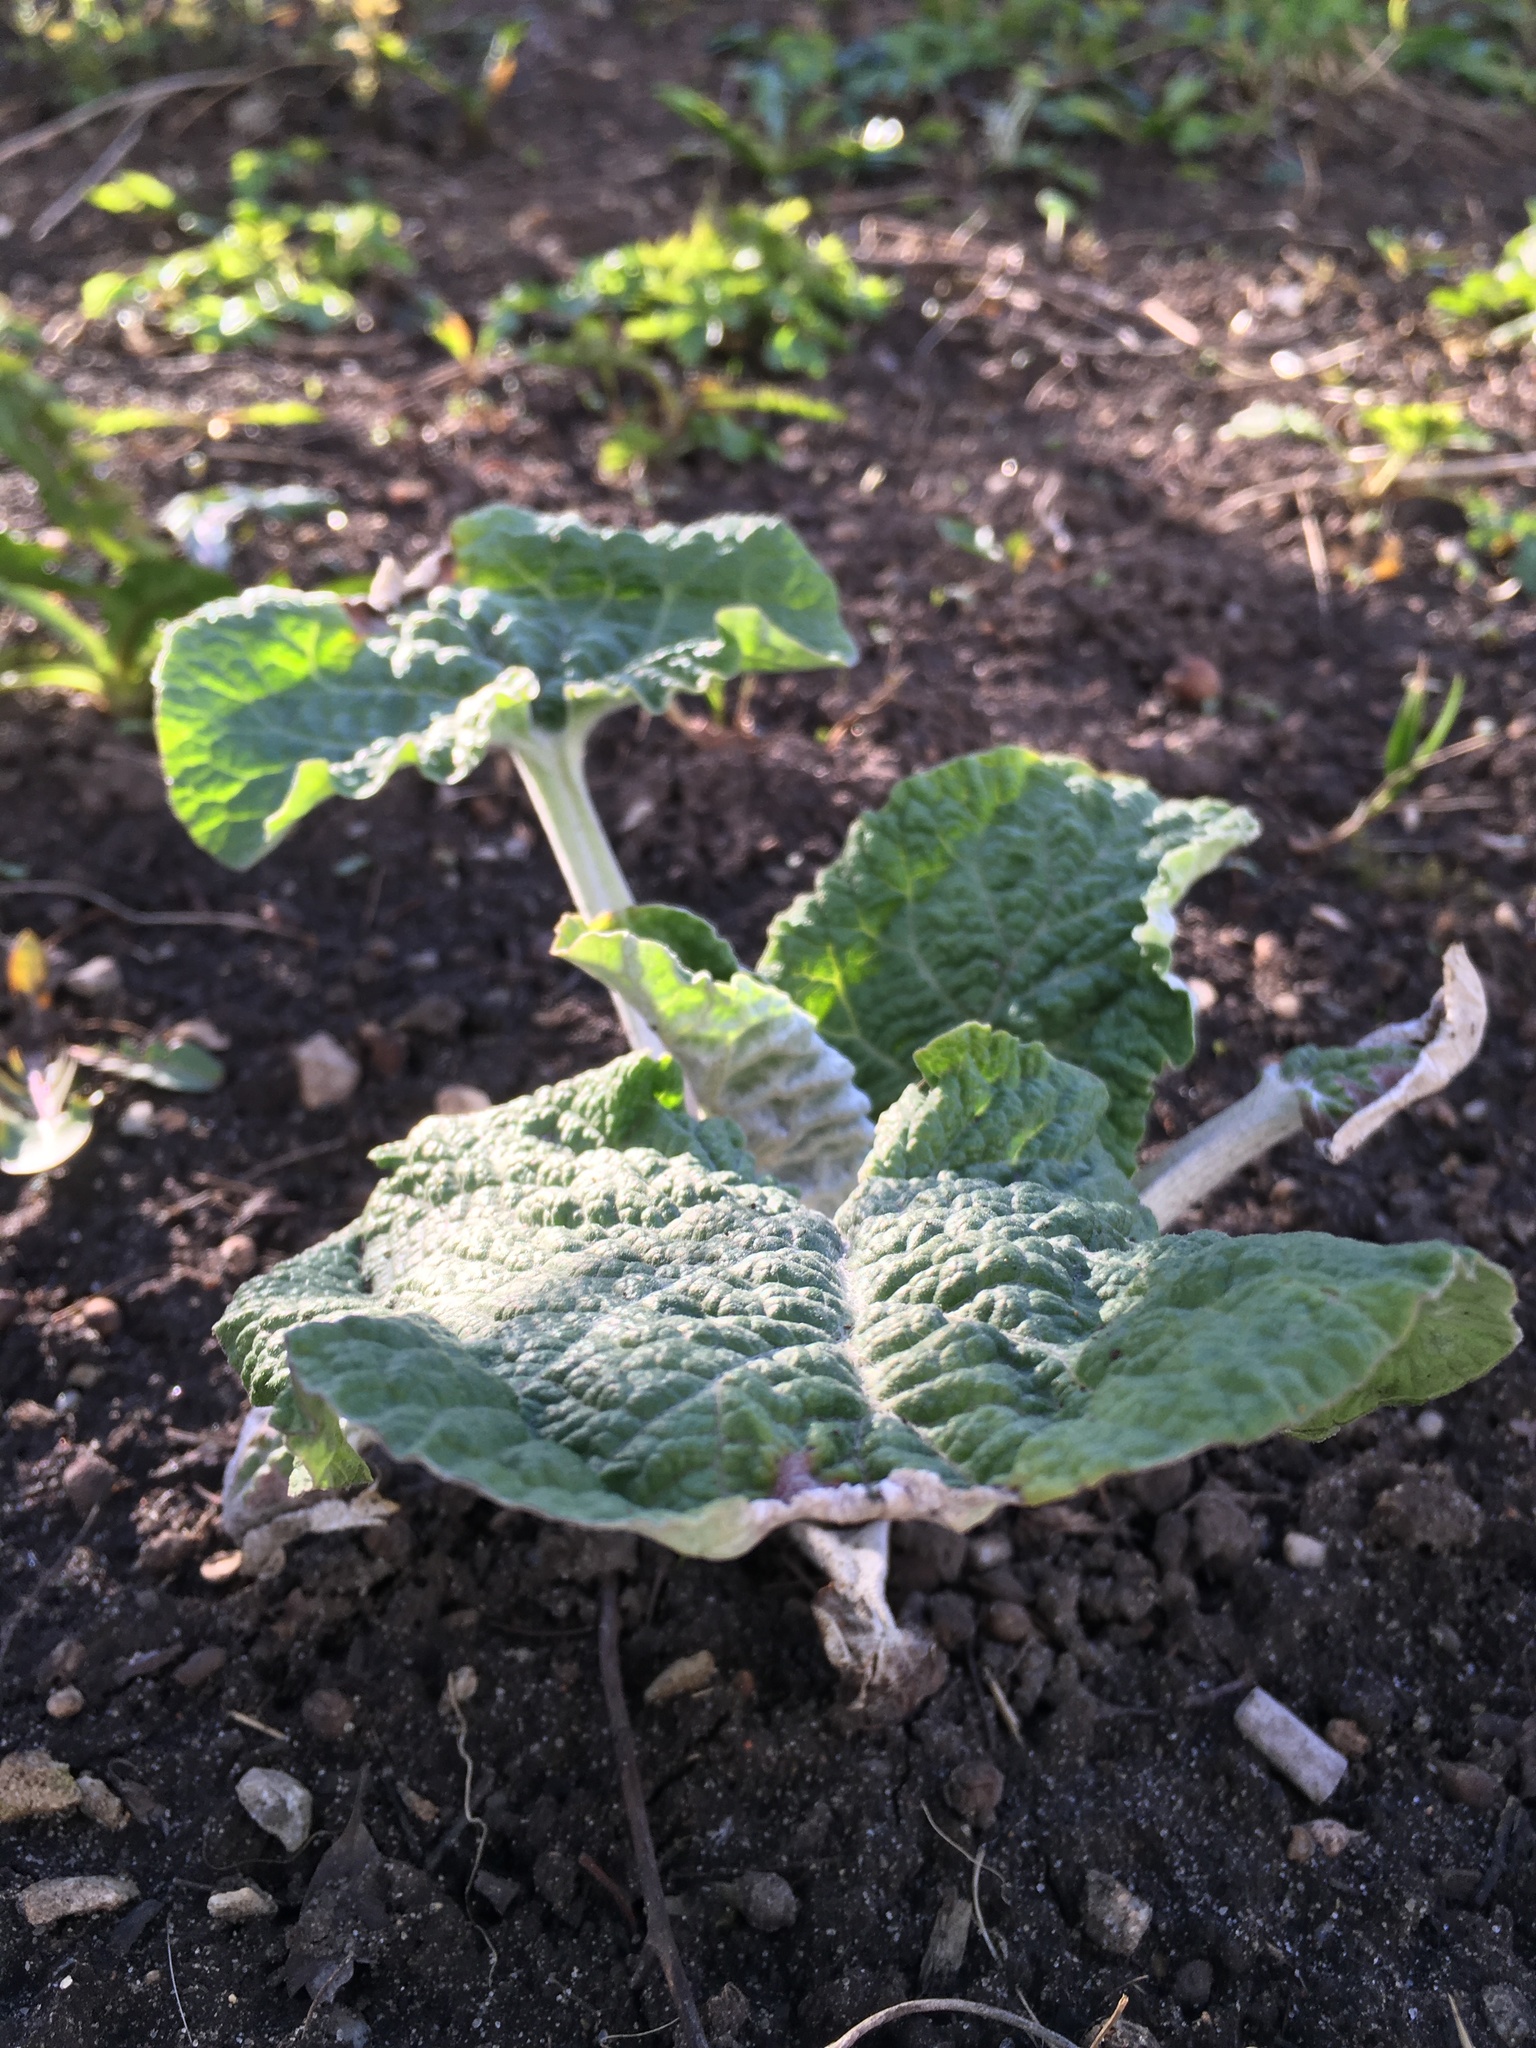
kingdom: Plantae
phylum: Tracheophyta
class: Magnoliopsida
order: Asterales
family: Asteraceae
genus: Arctium
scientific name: Arctium tomentosum
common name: Woolly burdock
